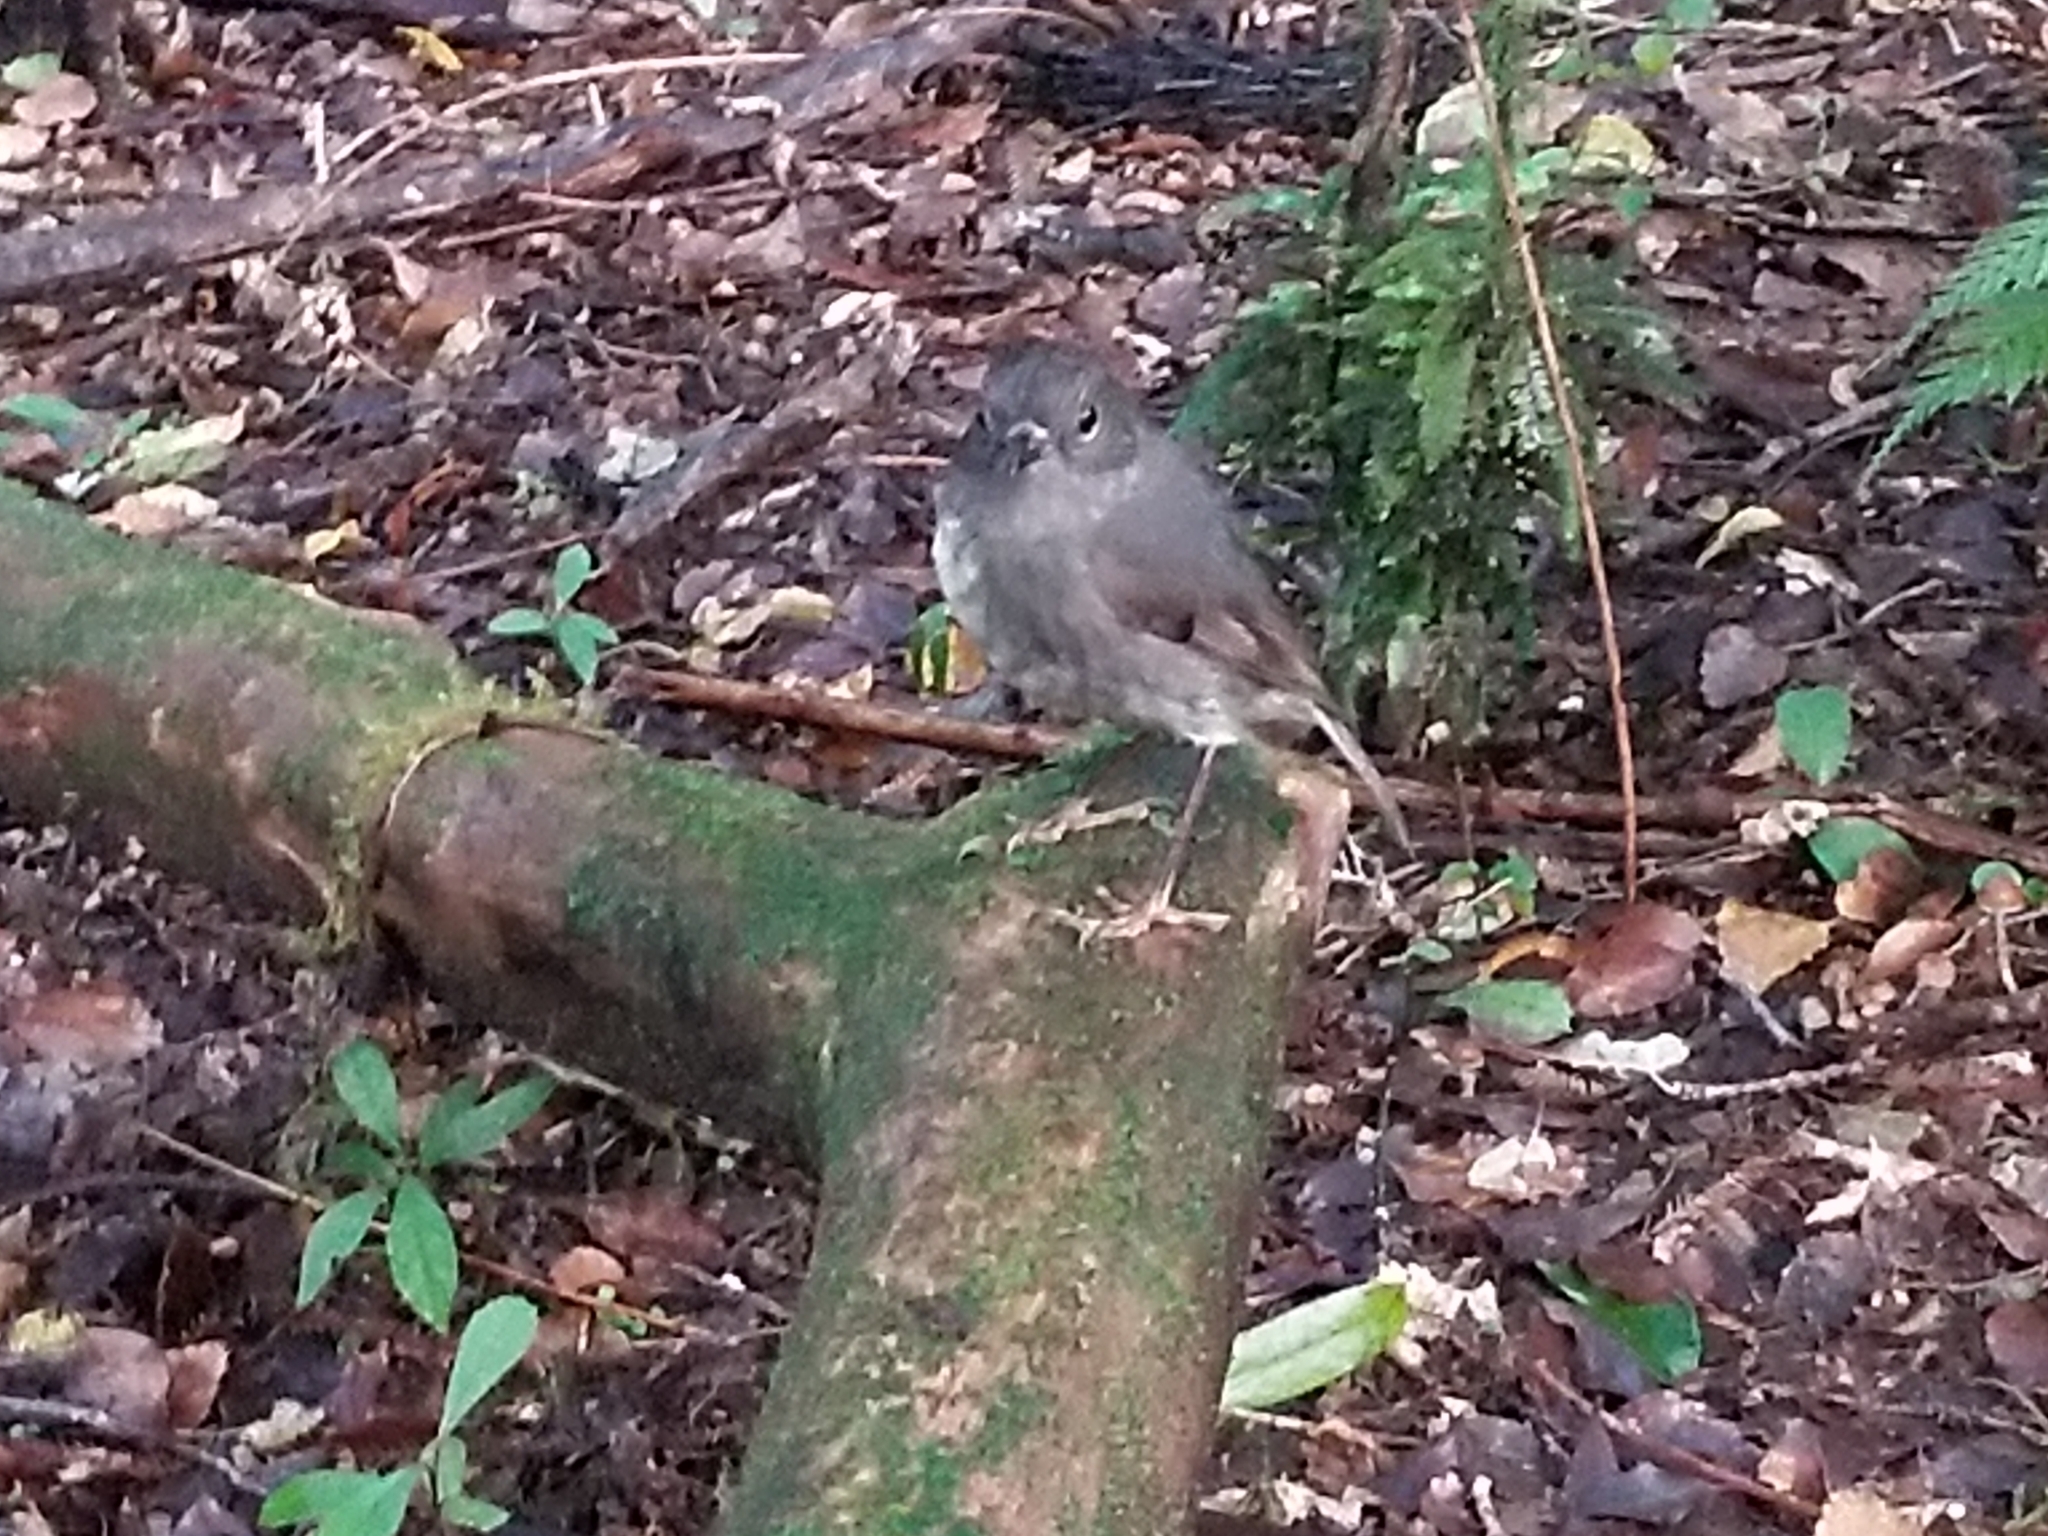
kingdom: Animalia
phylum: Chordata
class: Aves
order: Passeriformes
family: Petroicidae
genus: Petroica
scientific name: Petroica australis
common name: New zealand robin
